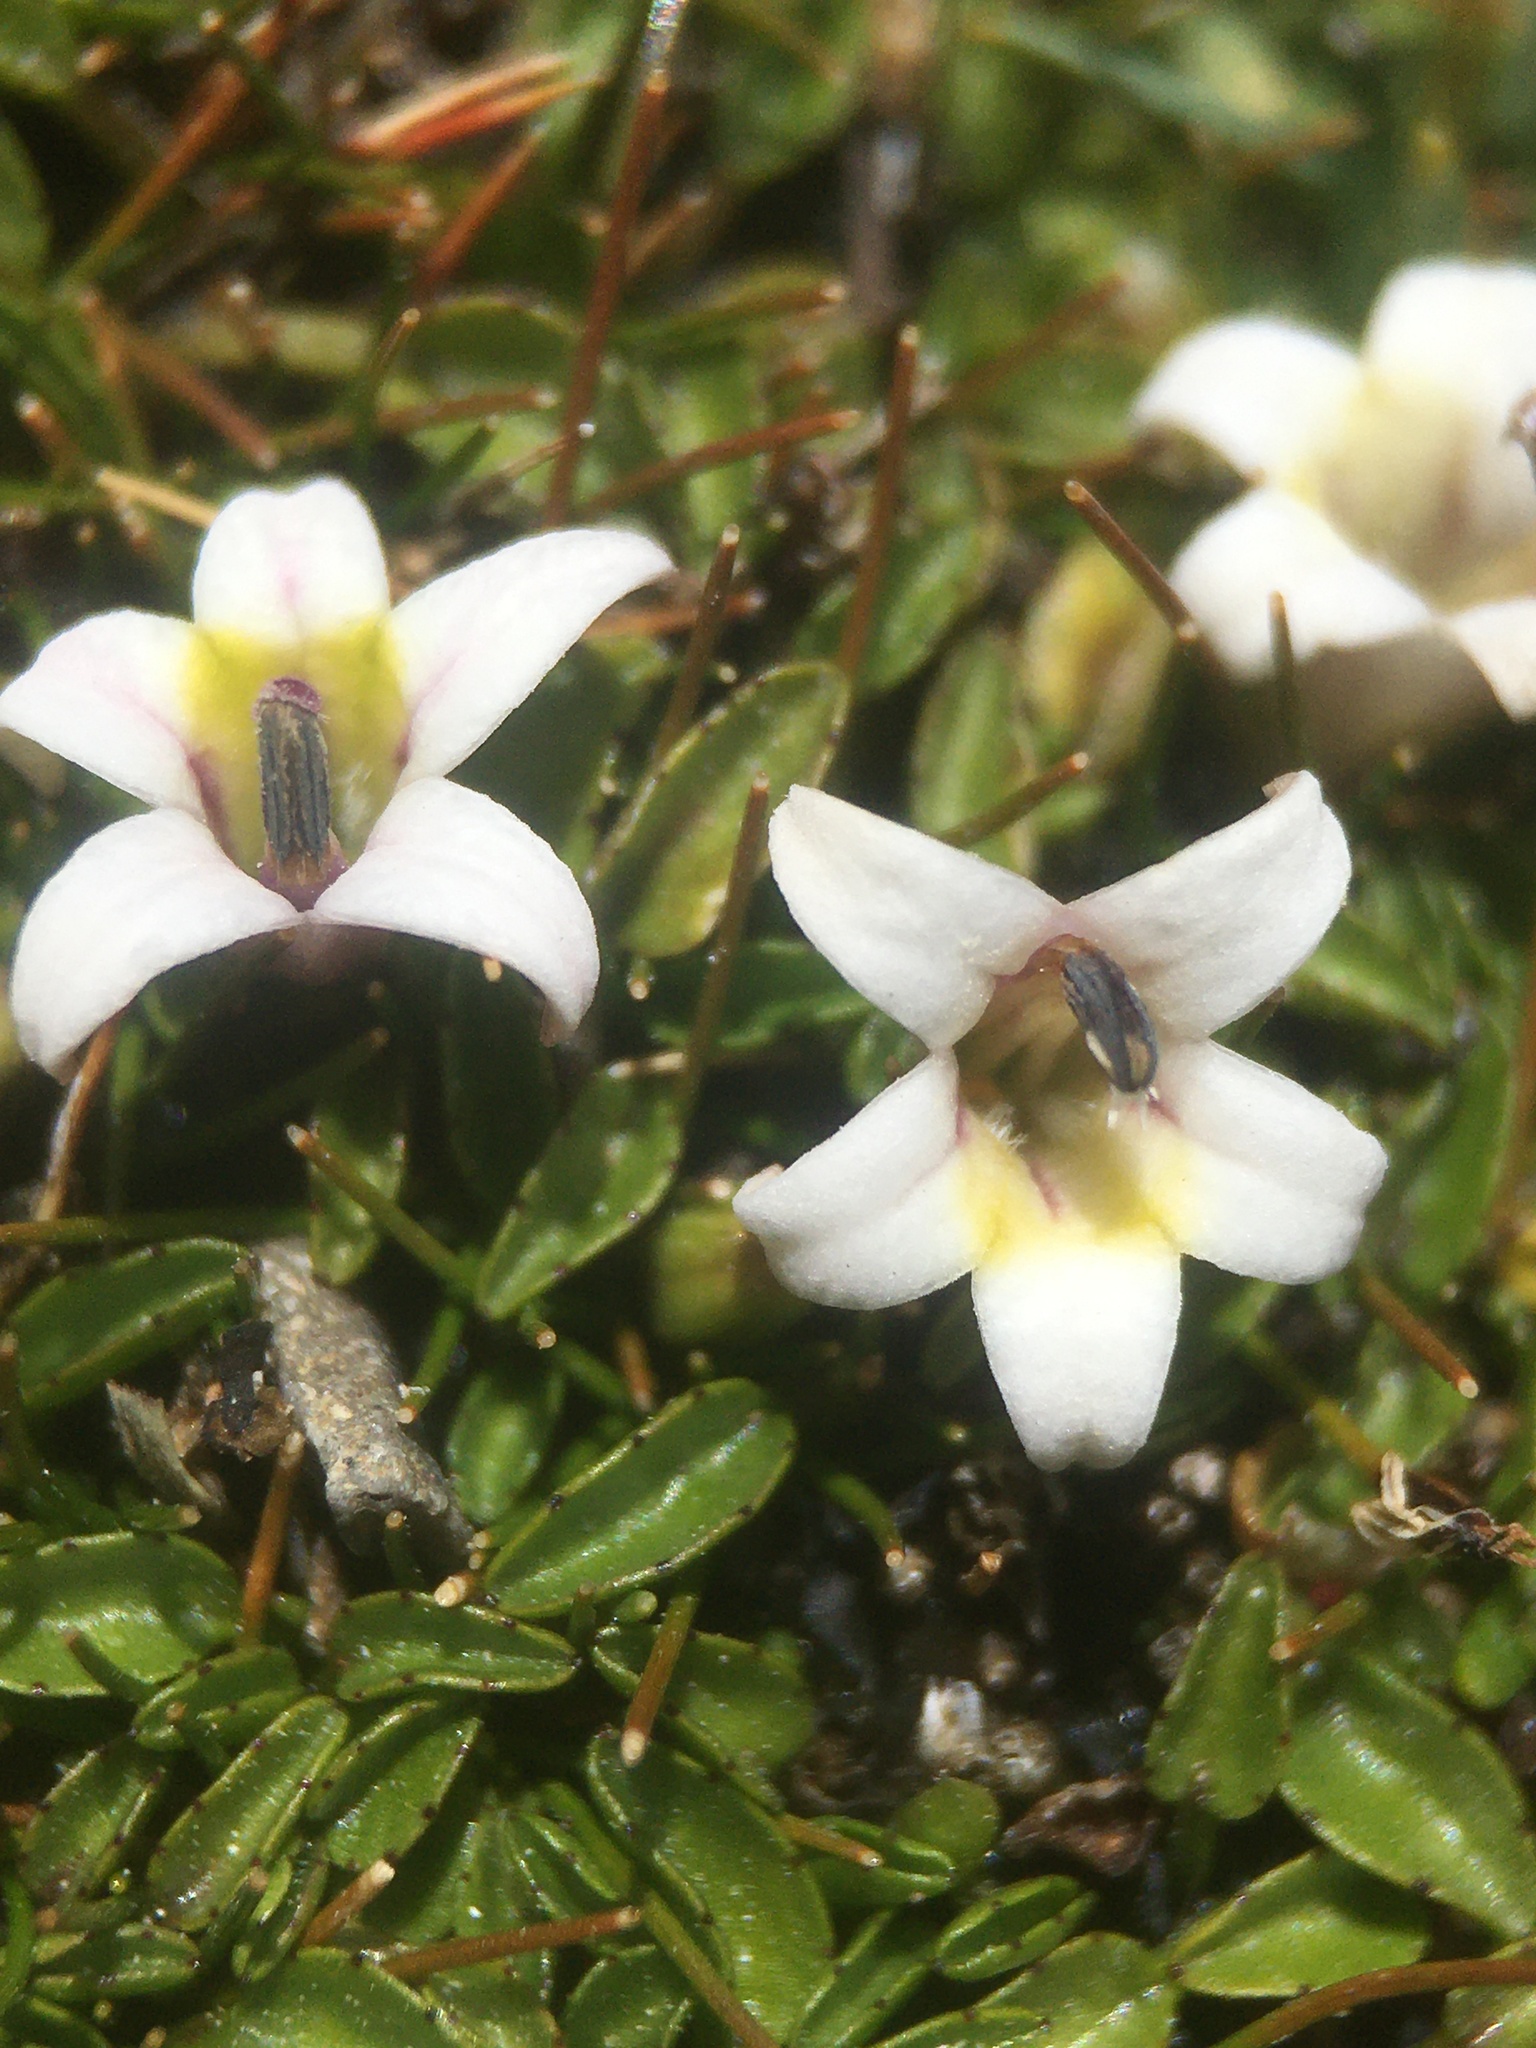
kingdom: Plantae
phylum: Tracheophyta
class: Magnoliopsida
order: Asterales
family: Campanulaceae
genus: Lobelia
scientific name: Lobelia oligophylla
